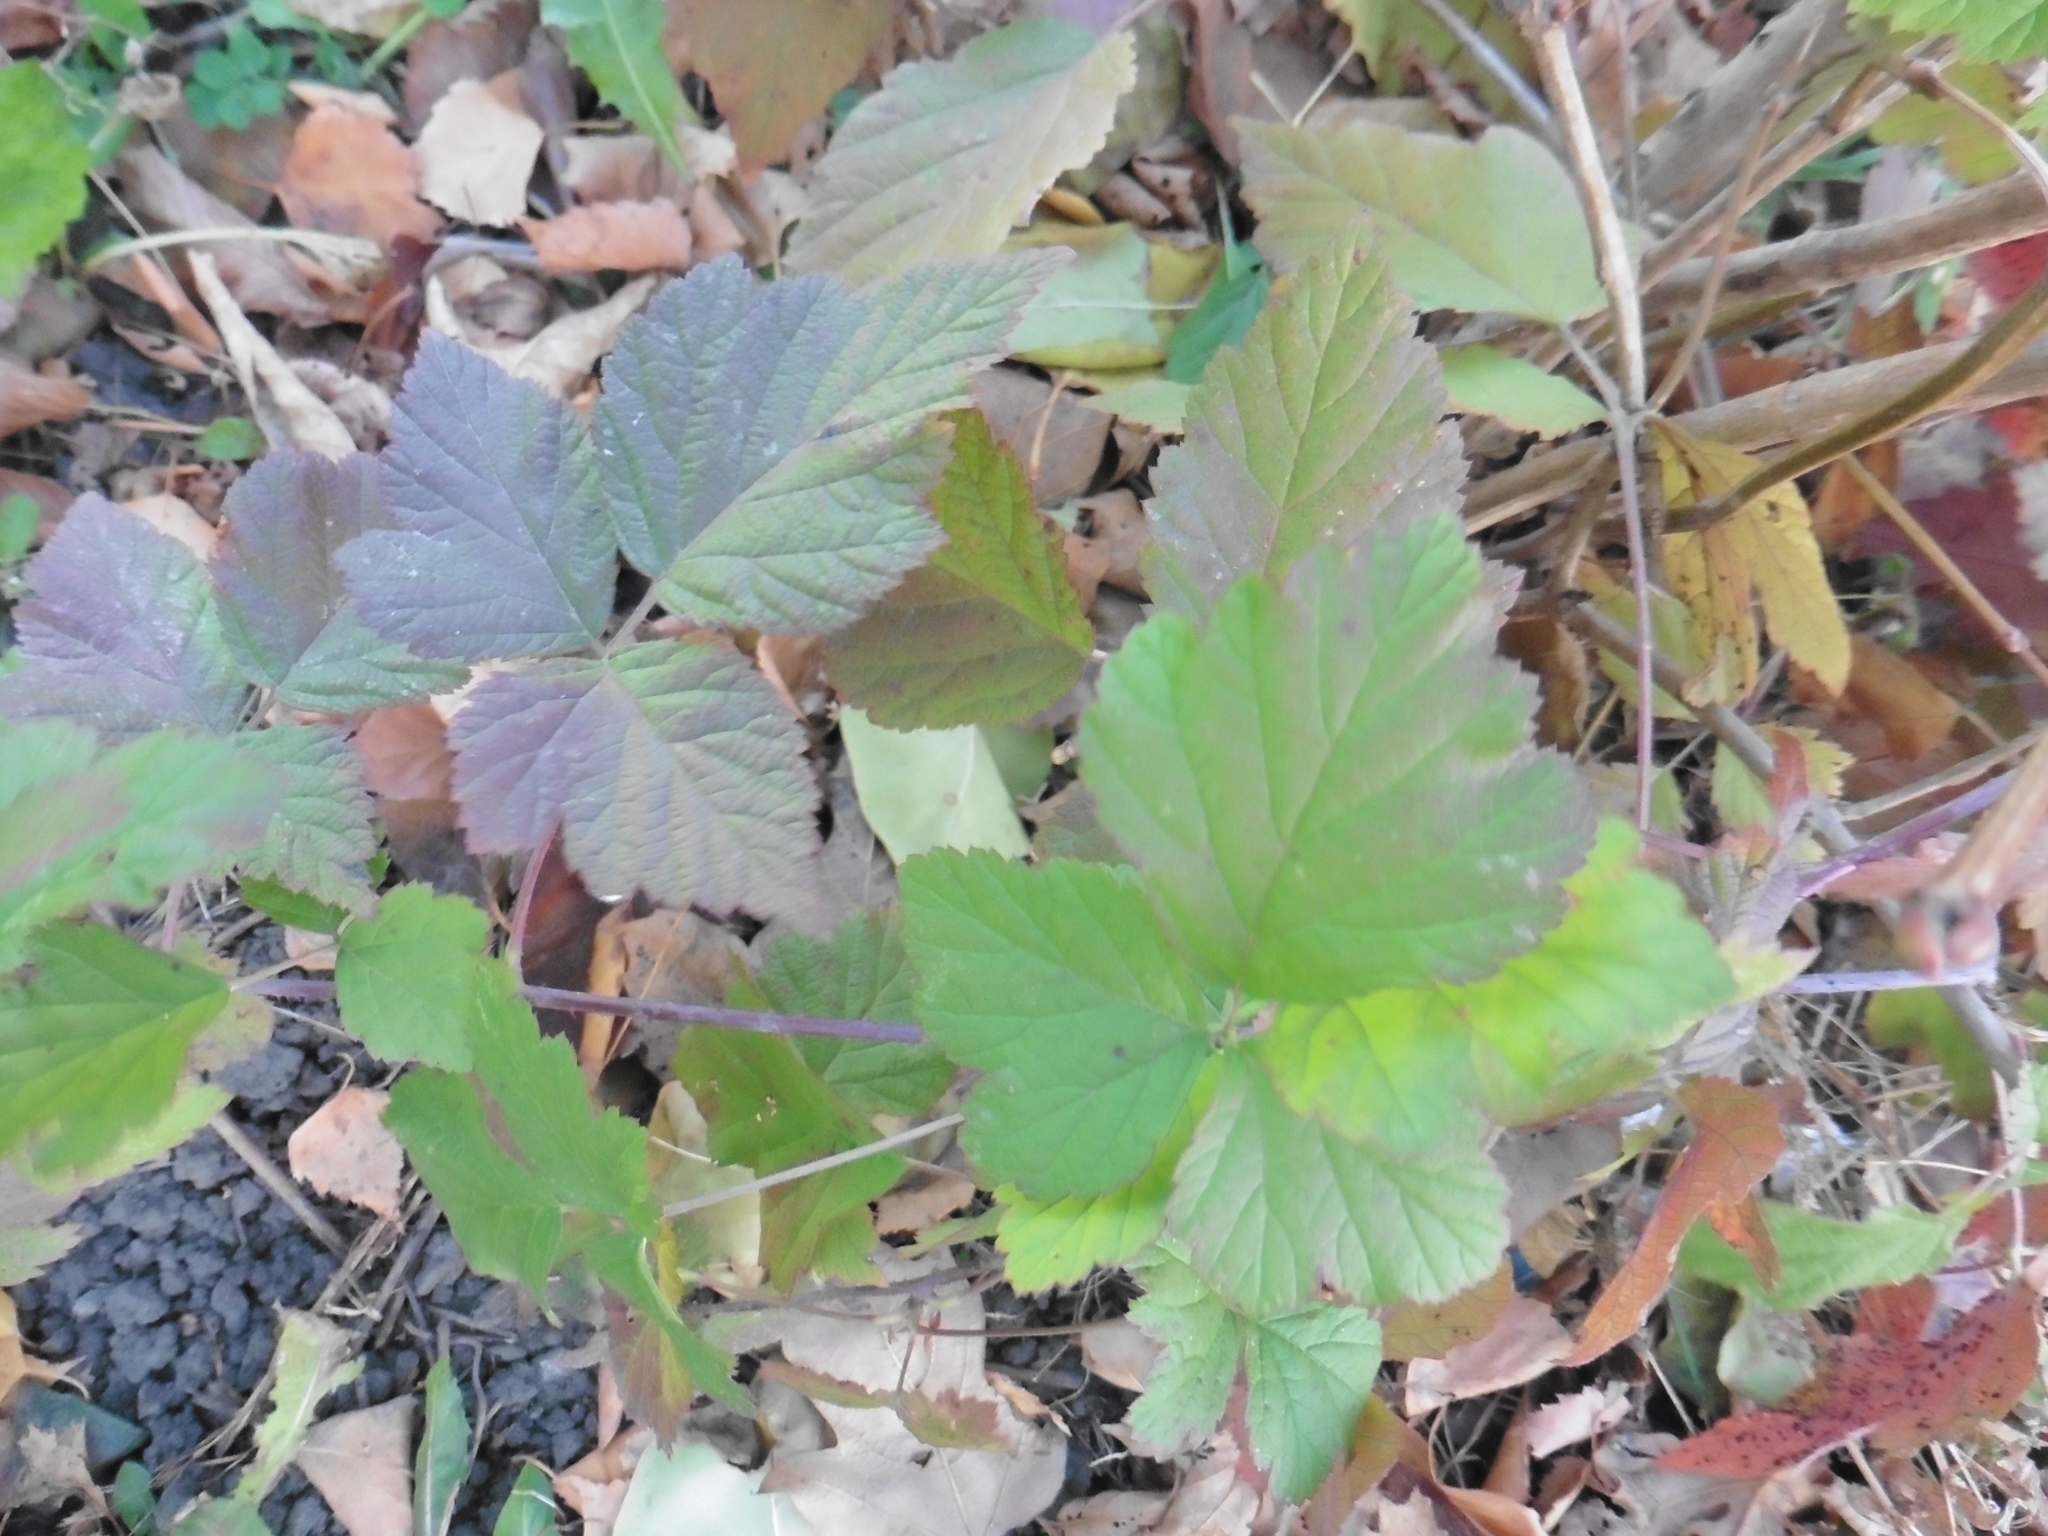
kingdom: Plantae
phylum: Tracheophyta
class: Magnoliopsida
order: Rosales
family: Rosaceae
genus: Rubus
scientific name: Rubus caesius
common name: Dewberry
